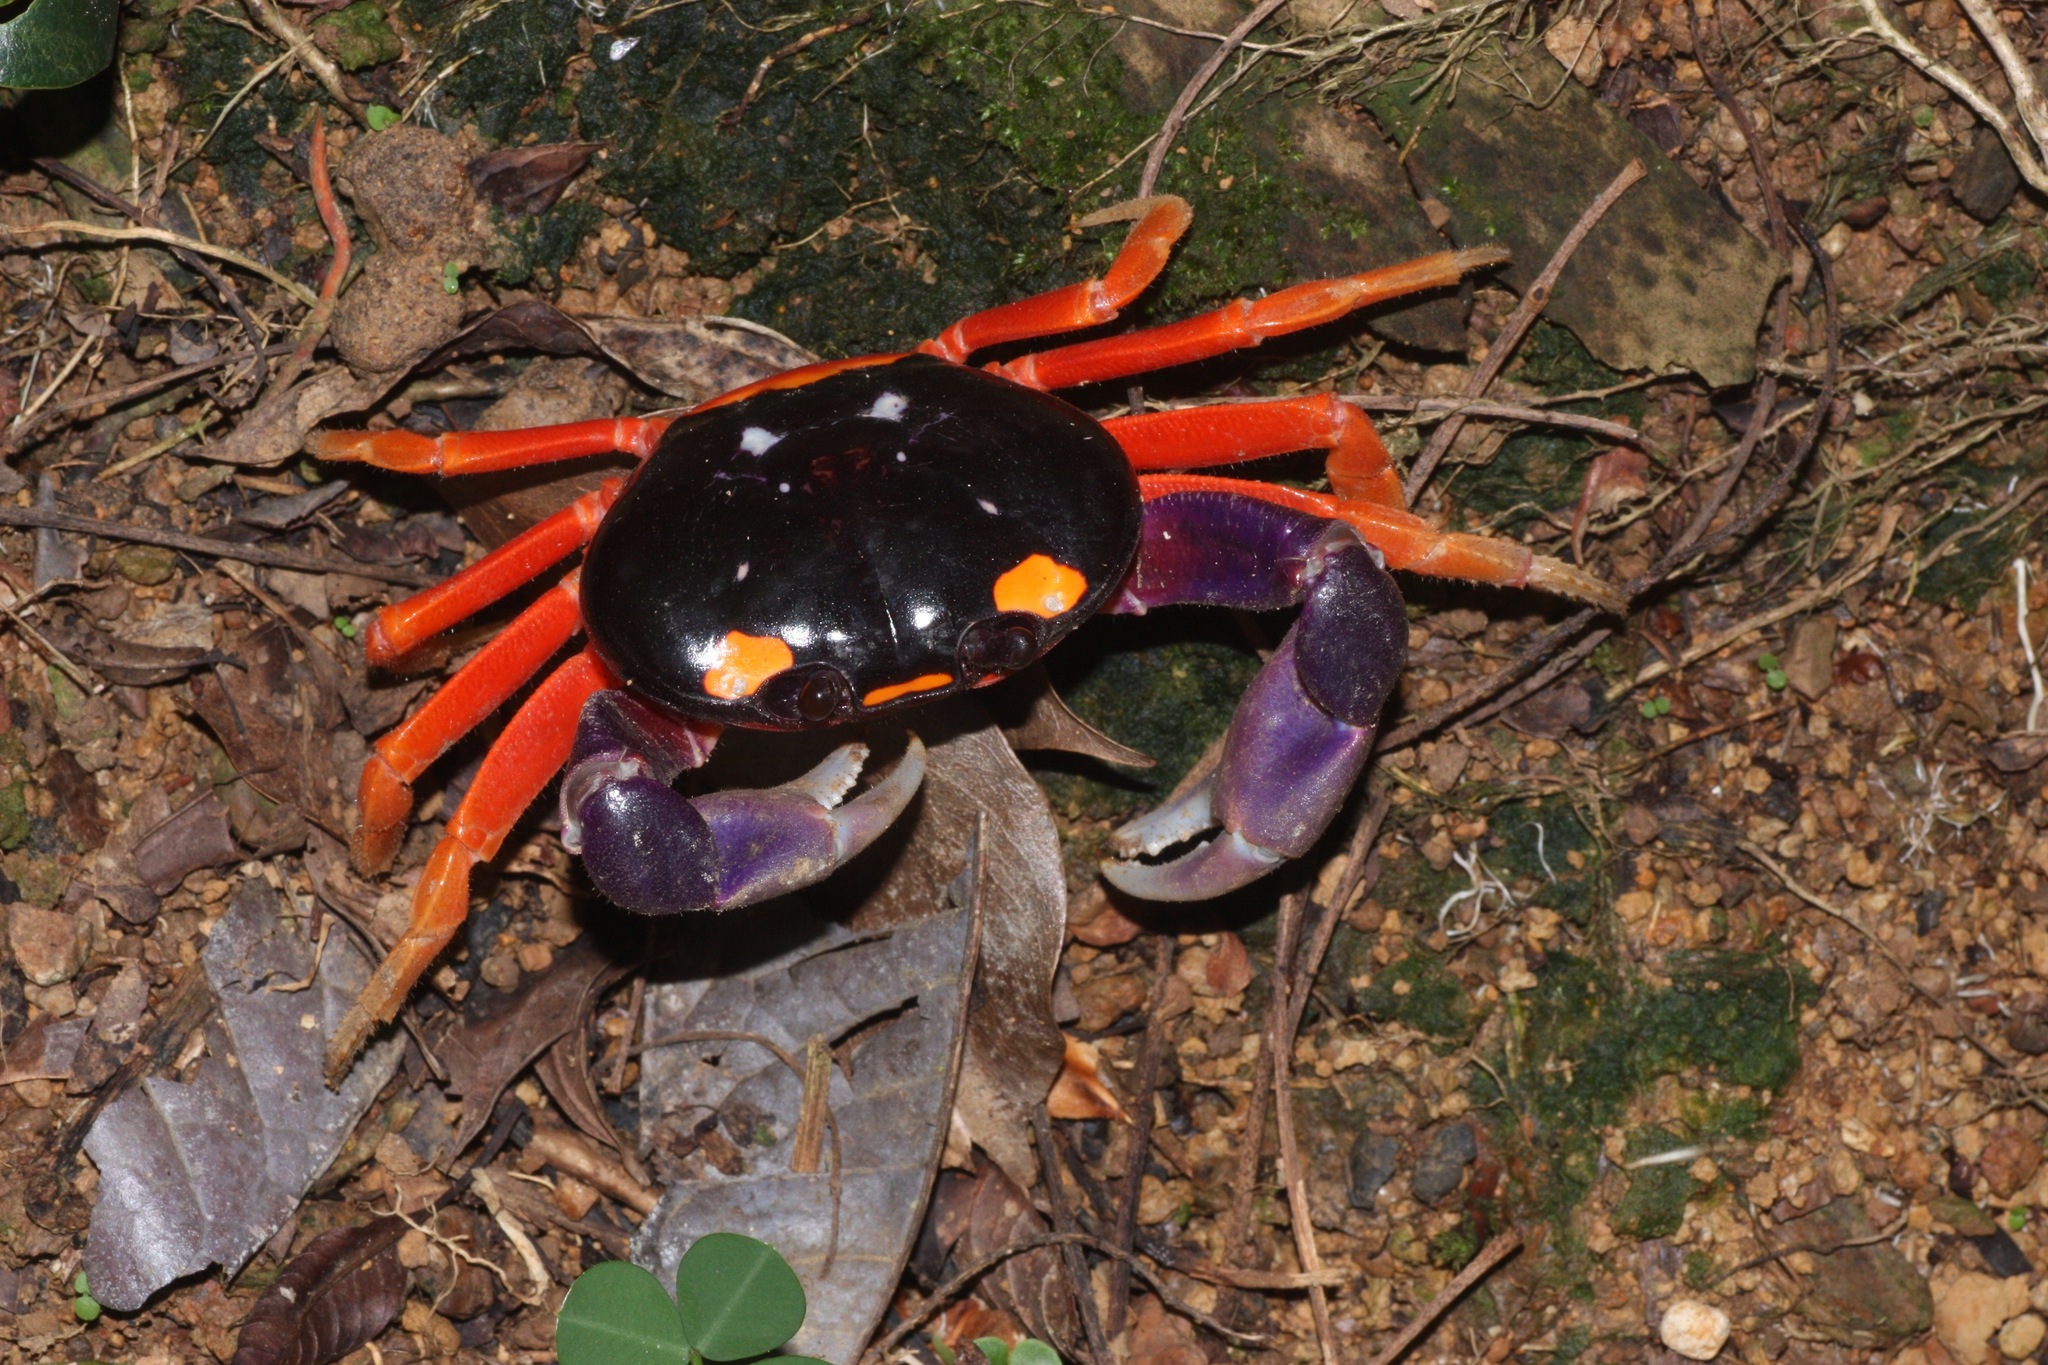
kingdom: Animalia
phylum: Arthropoda
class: Malacostraca
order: Decapoda
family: Gecarcinidae
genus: Gecarcinus
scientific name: Gecarcinus quadratus
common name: Halloween crab
